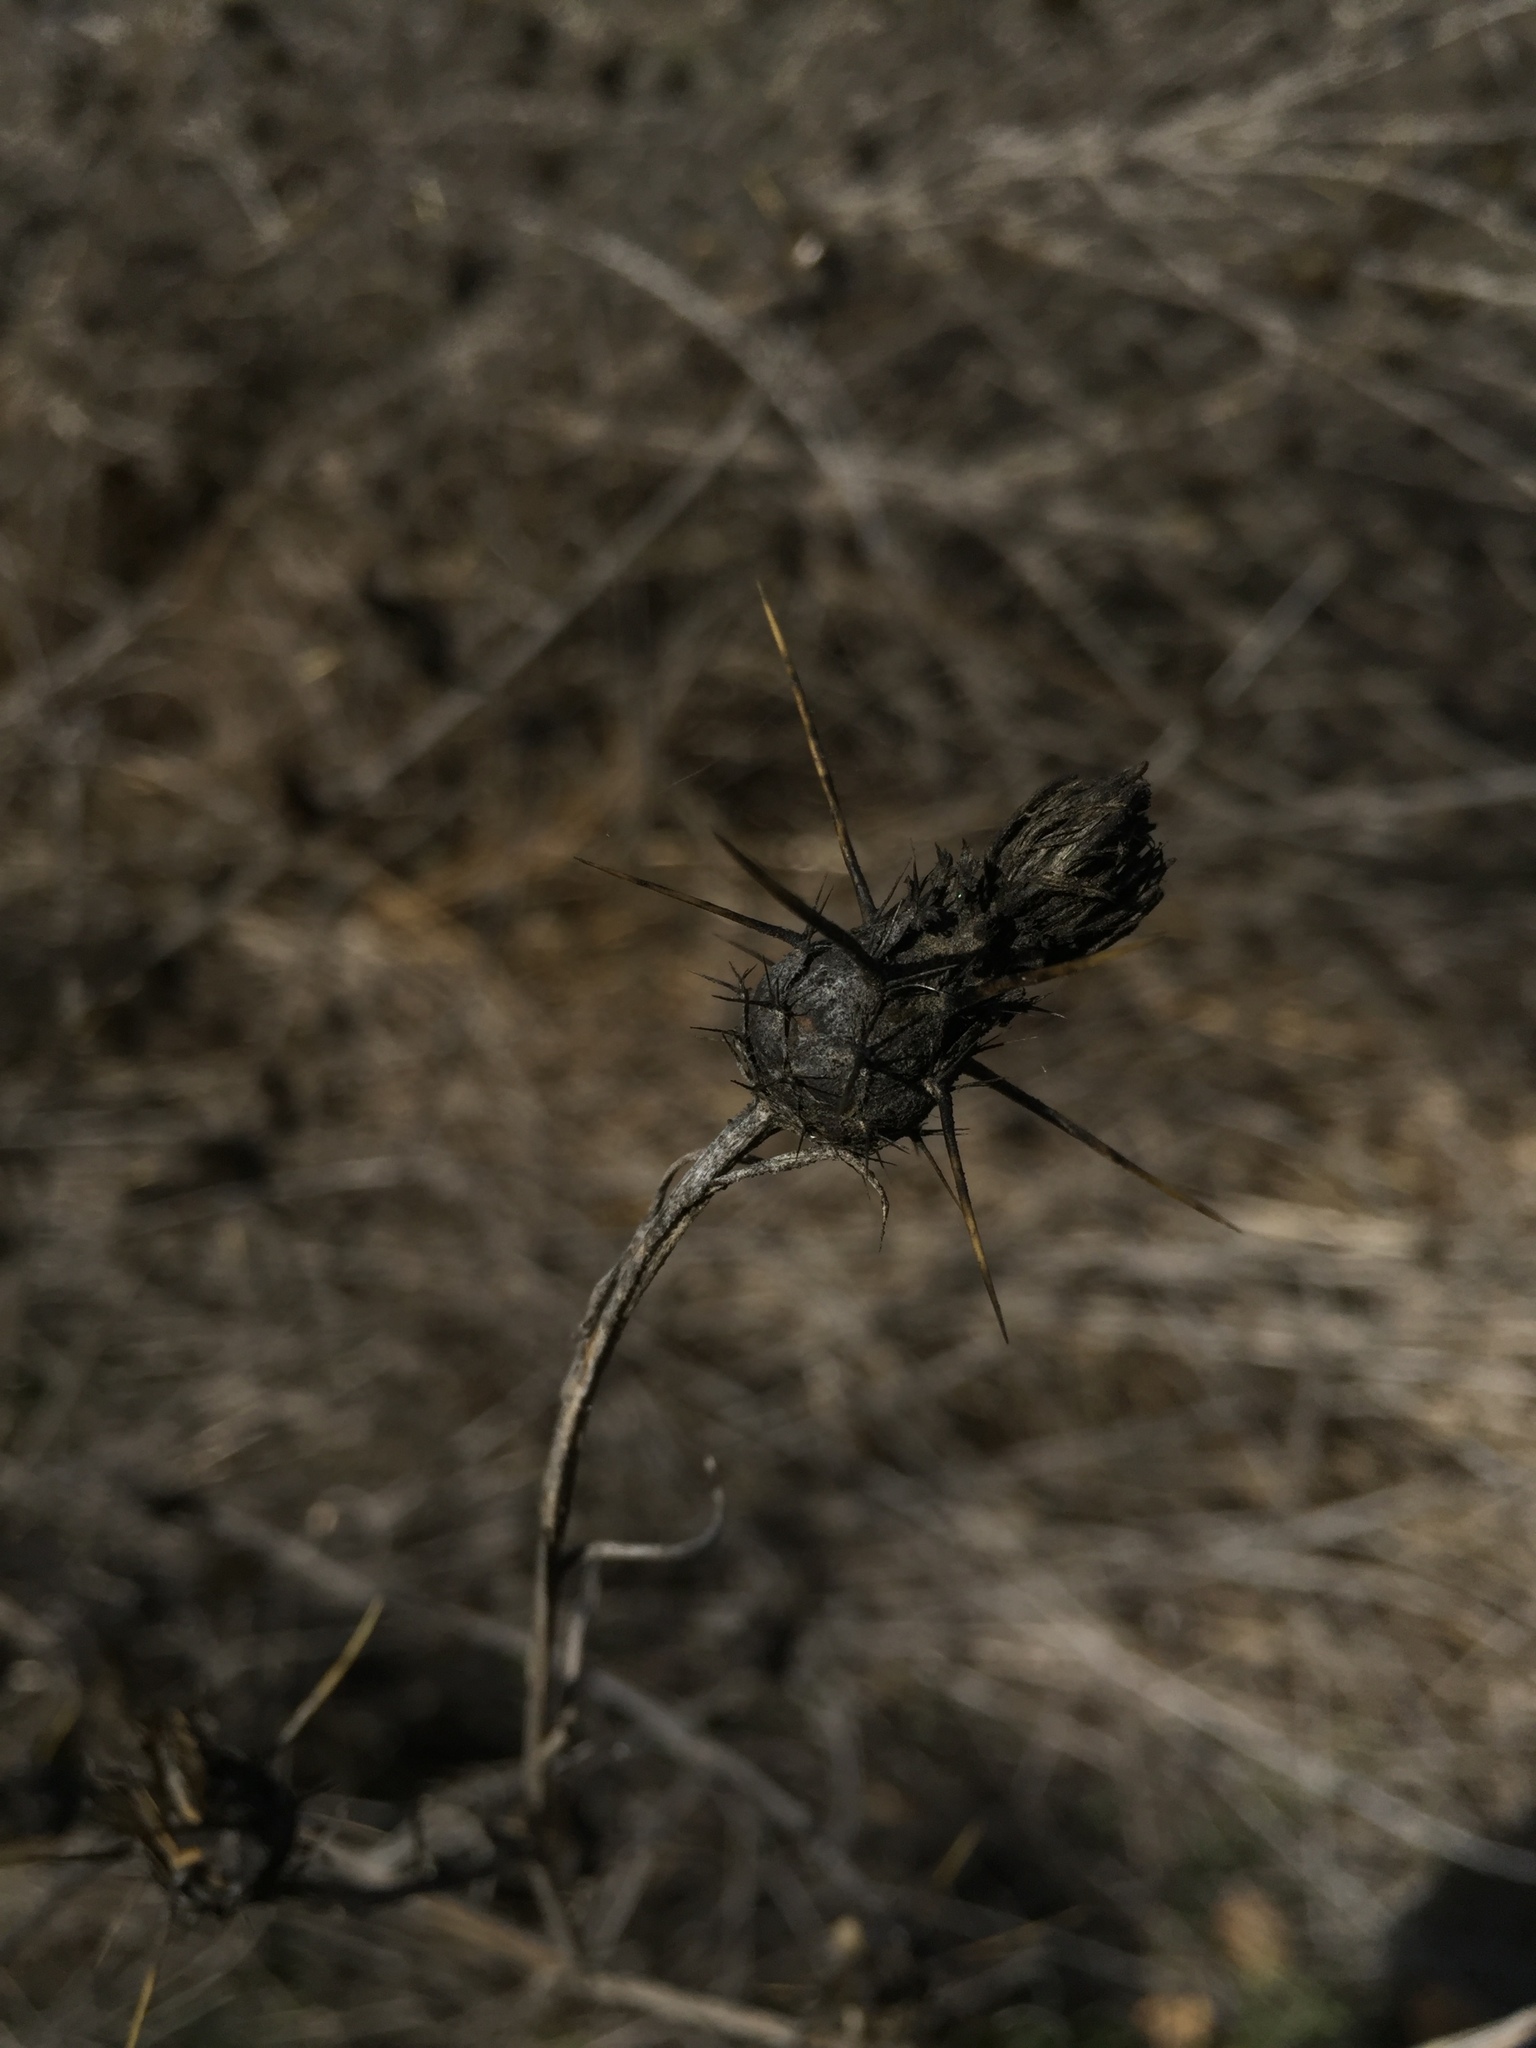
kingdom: Plantae
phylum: Tracheophyta
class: Magnoliopsida
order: Asterales
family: Asteraceae
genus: Centaurea
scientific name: Centaurea solstitialis
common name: Yellow star-thistle
